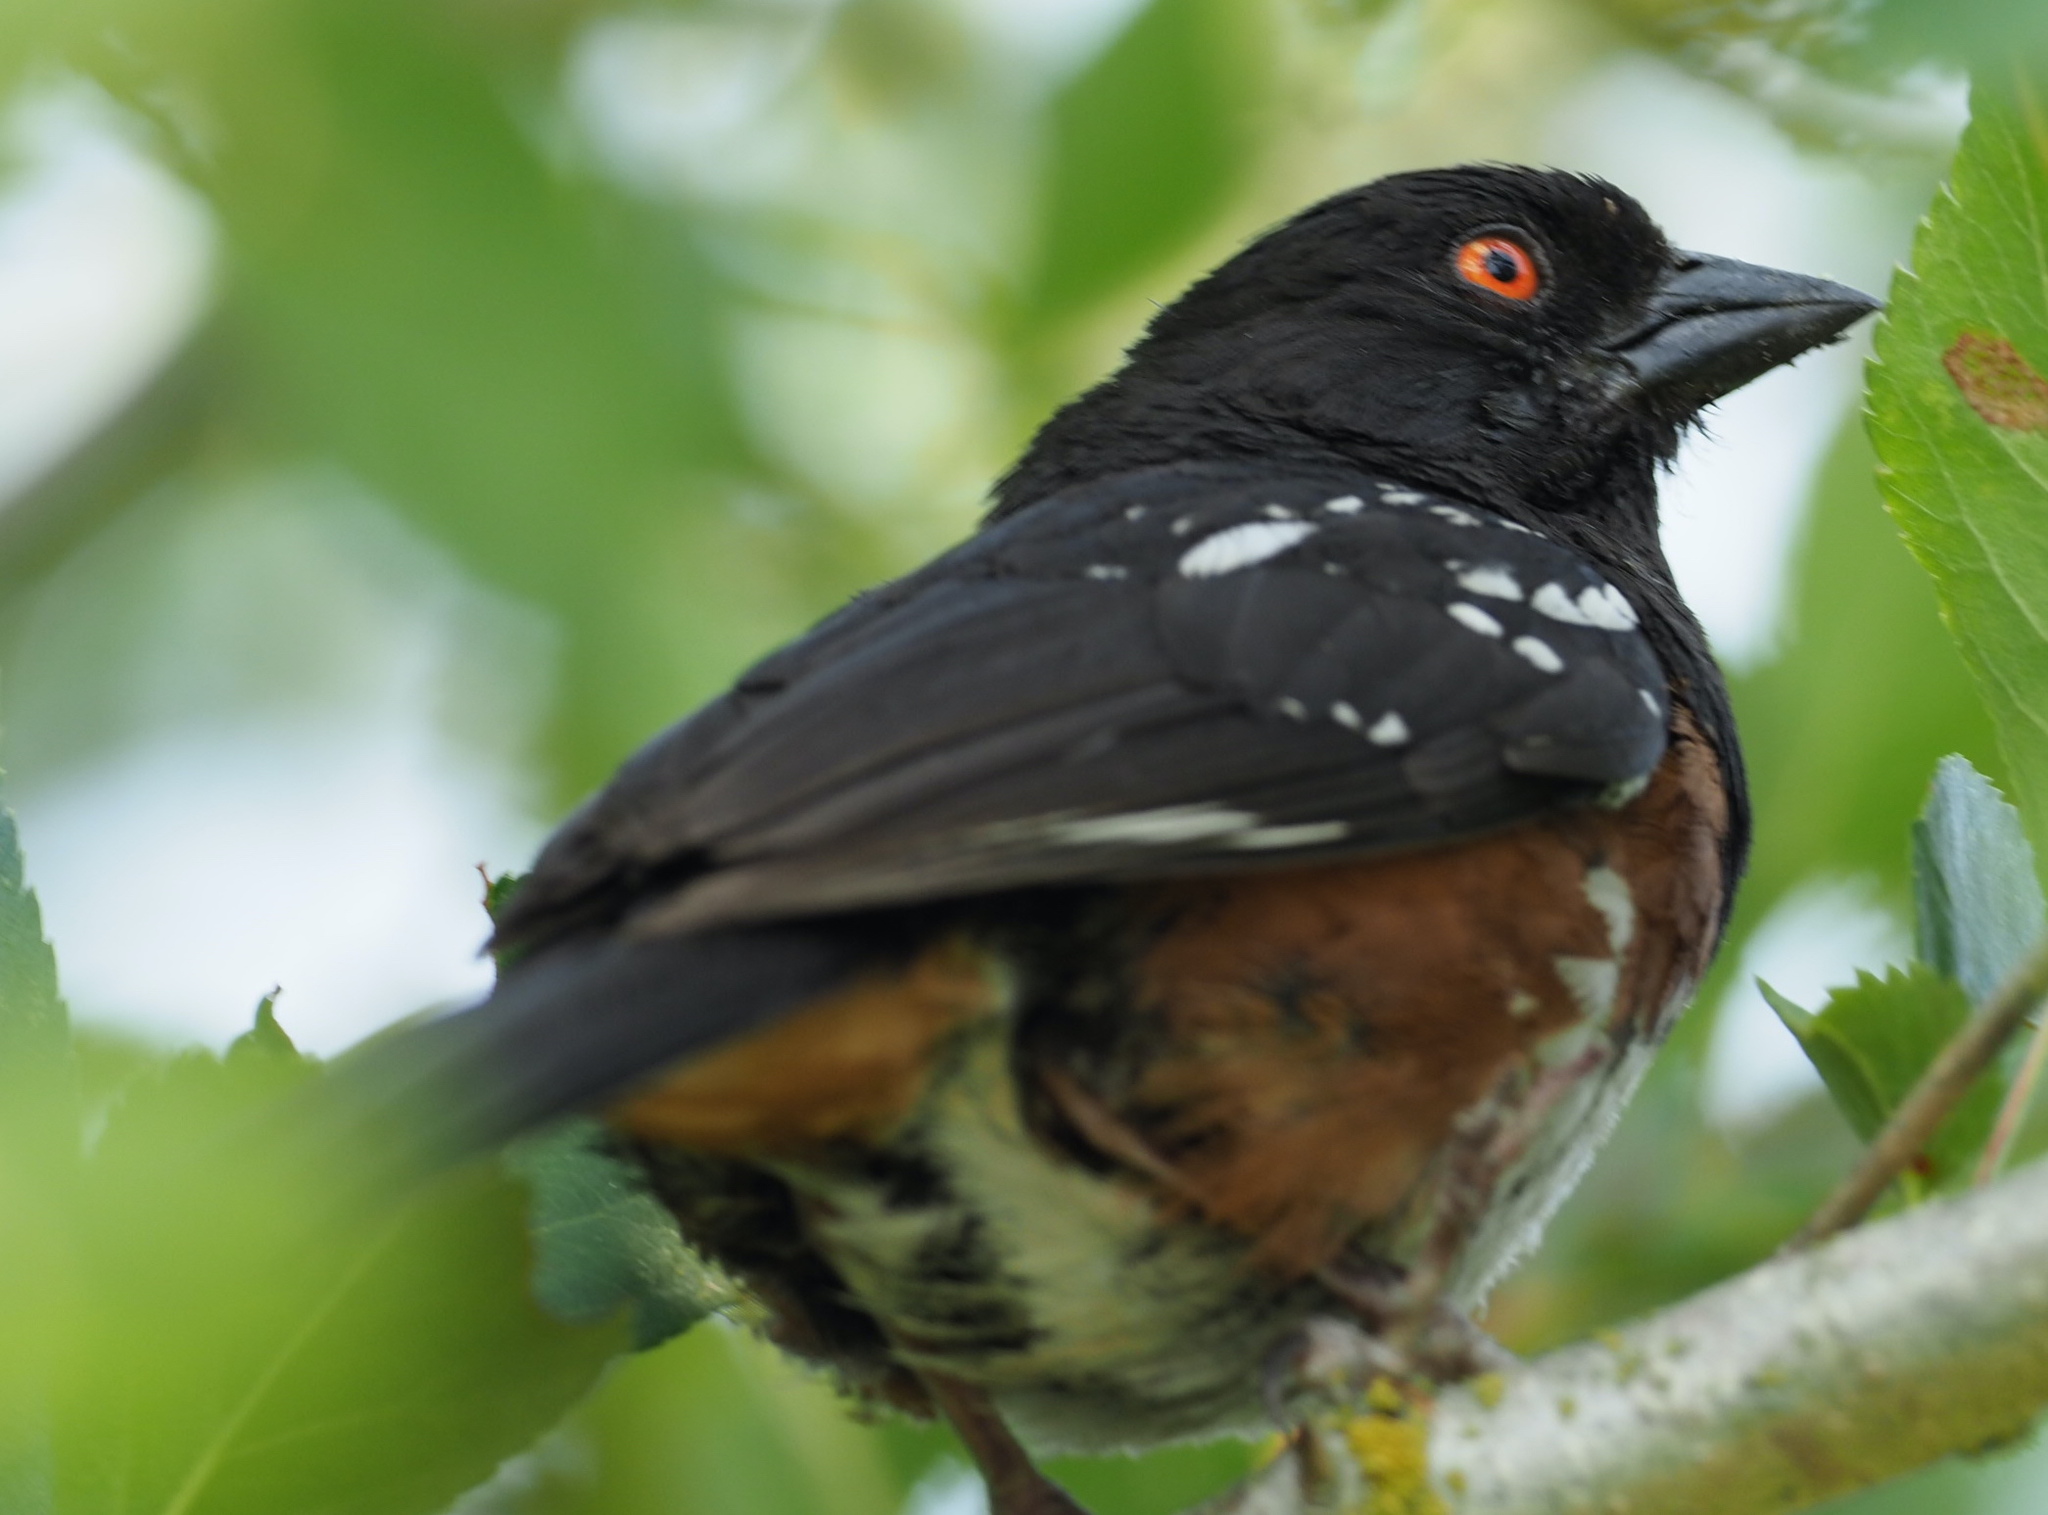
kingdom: Animalia
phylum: Chordata
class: Aves
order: Passeriformes
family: Passerellidae
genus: Pipilo
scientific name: Pipilo maculatus
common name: Spotted towhee
